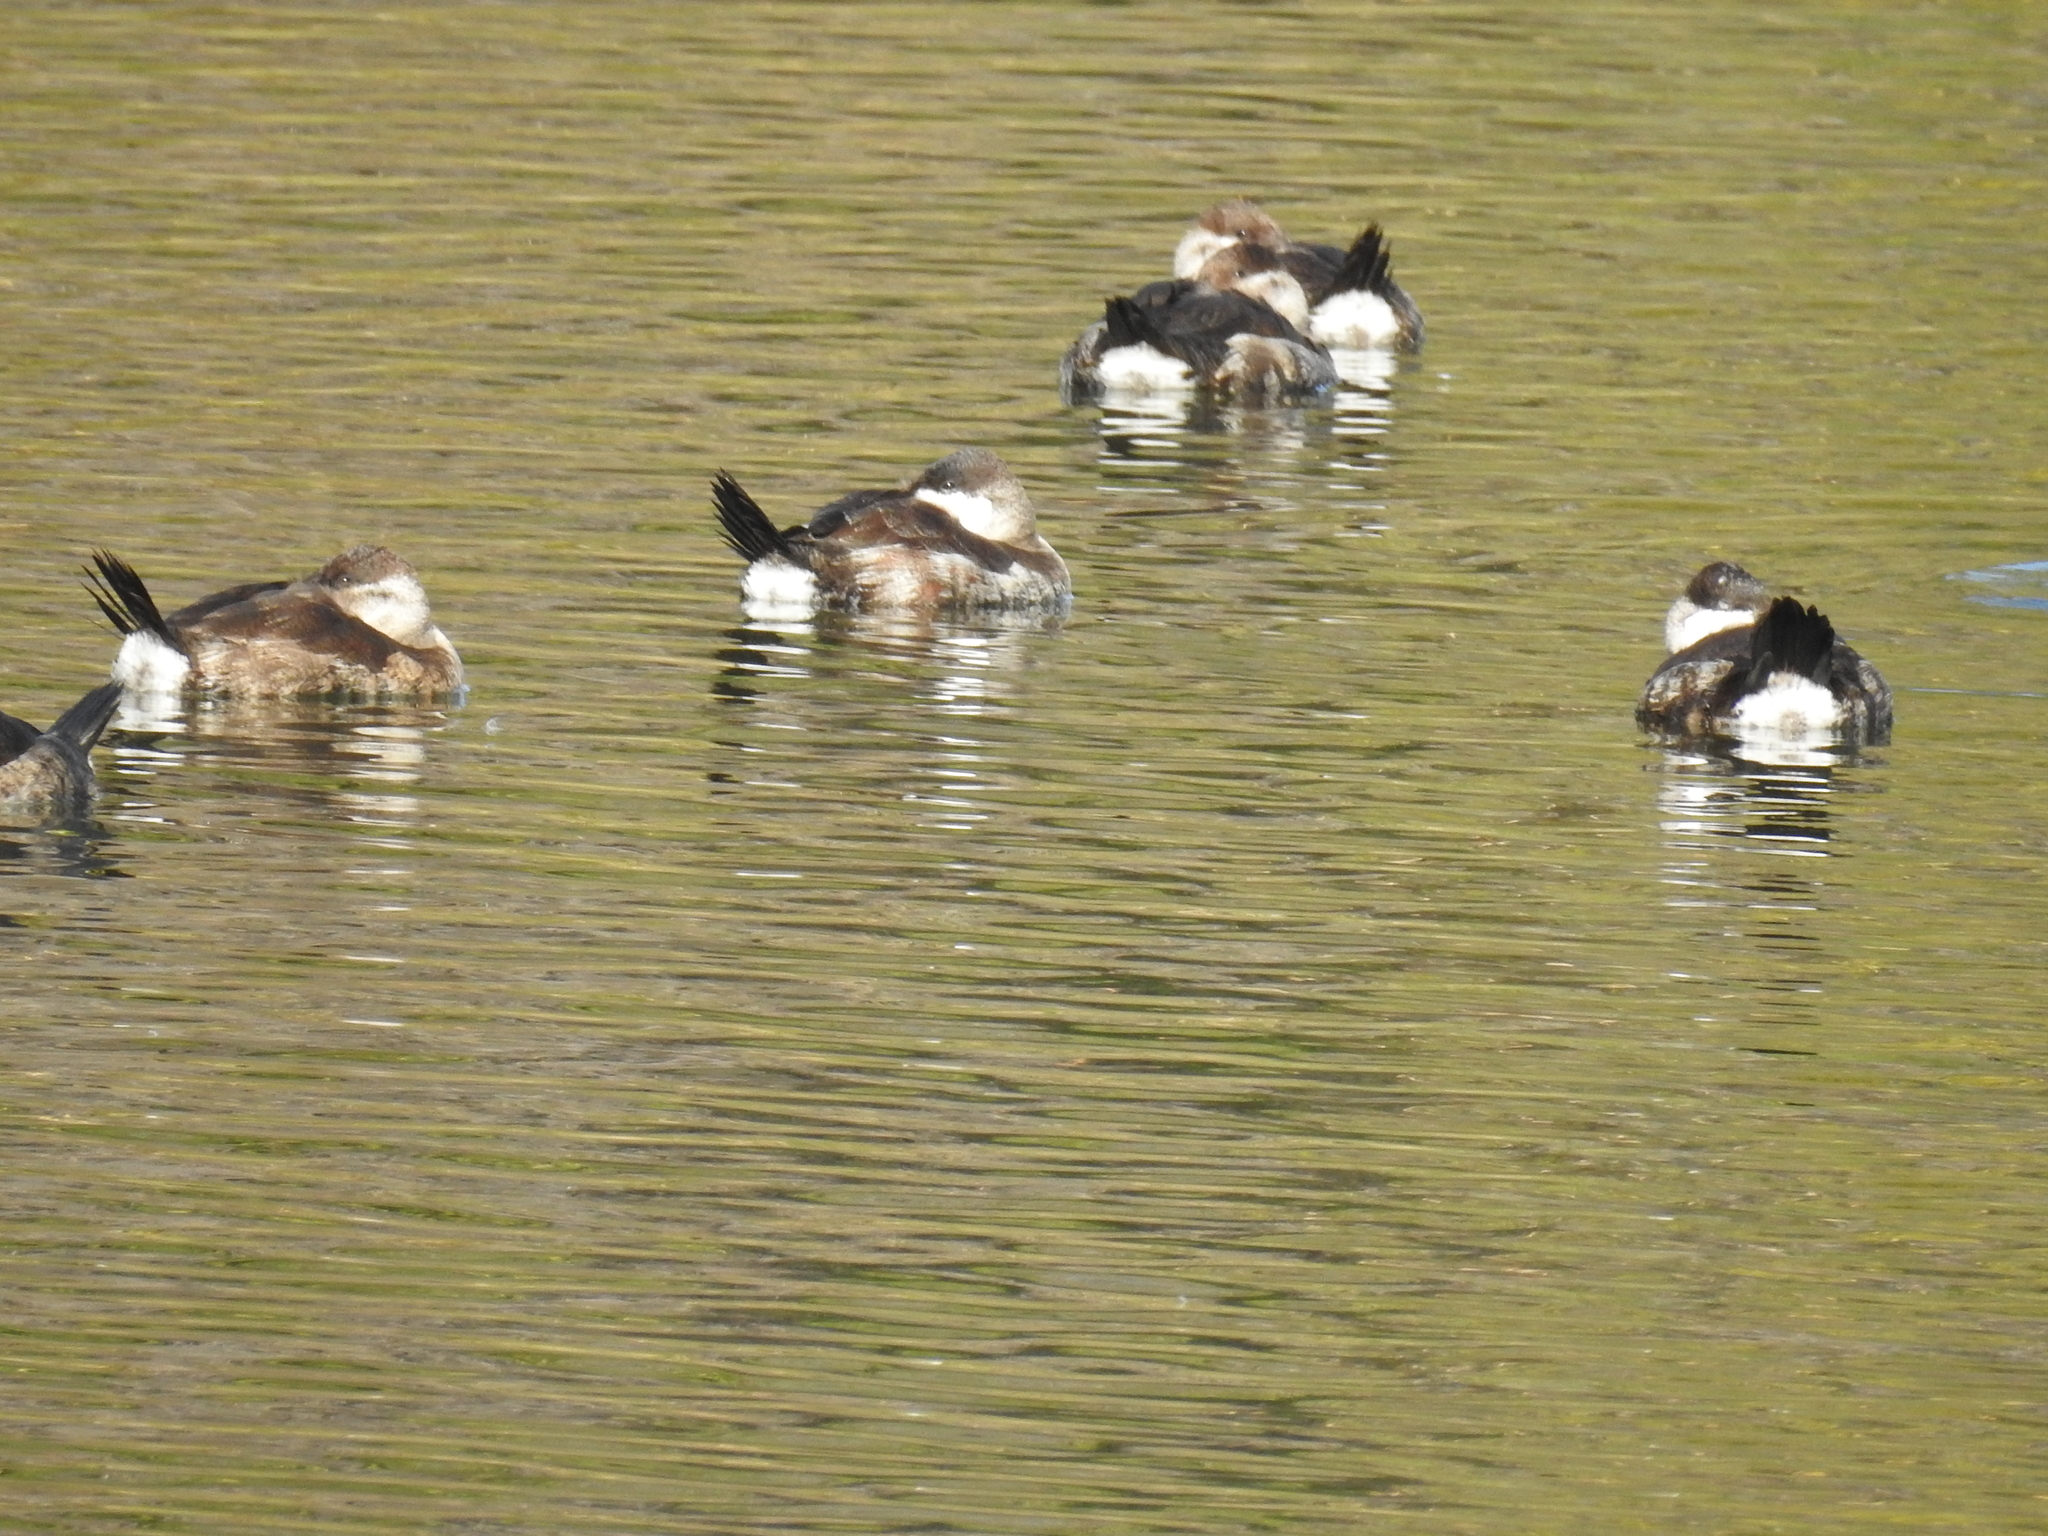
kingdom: Animalia
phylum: Chordata
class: Aves
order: Anseriformes
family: Anatidae
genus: Oxyura
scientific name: Oxyura jamaicensis
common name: Ruddy duck
